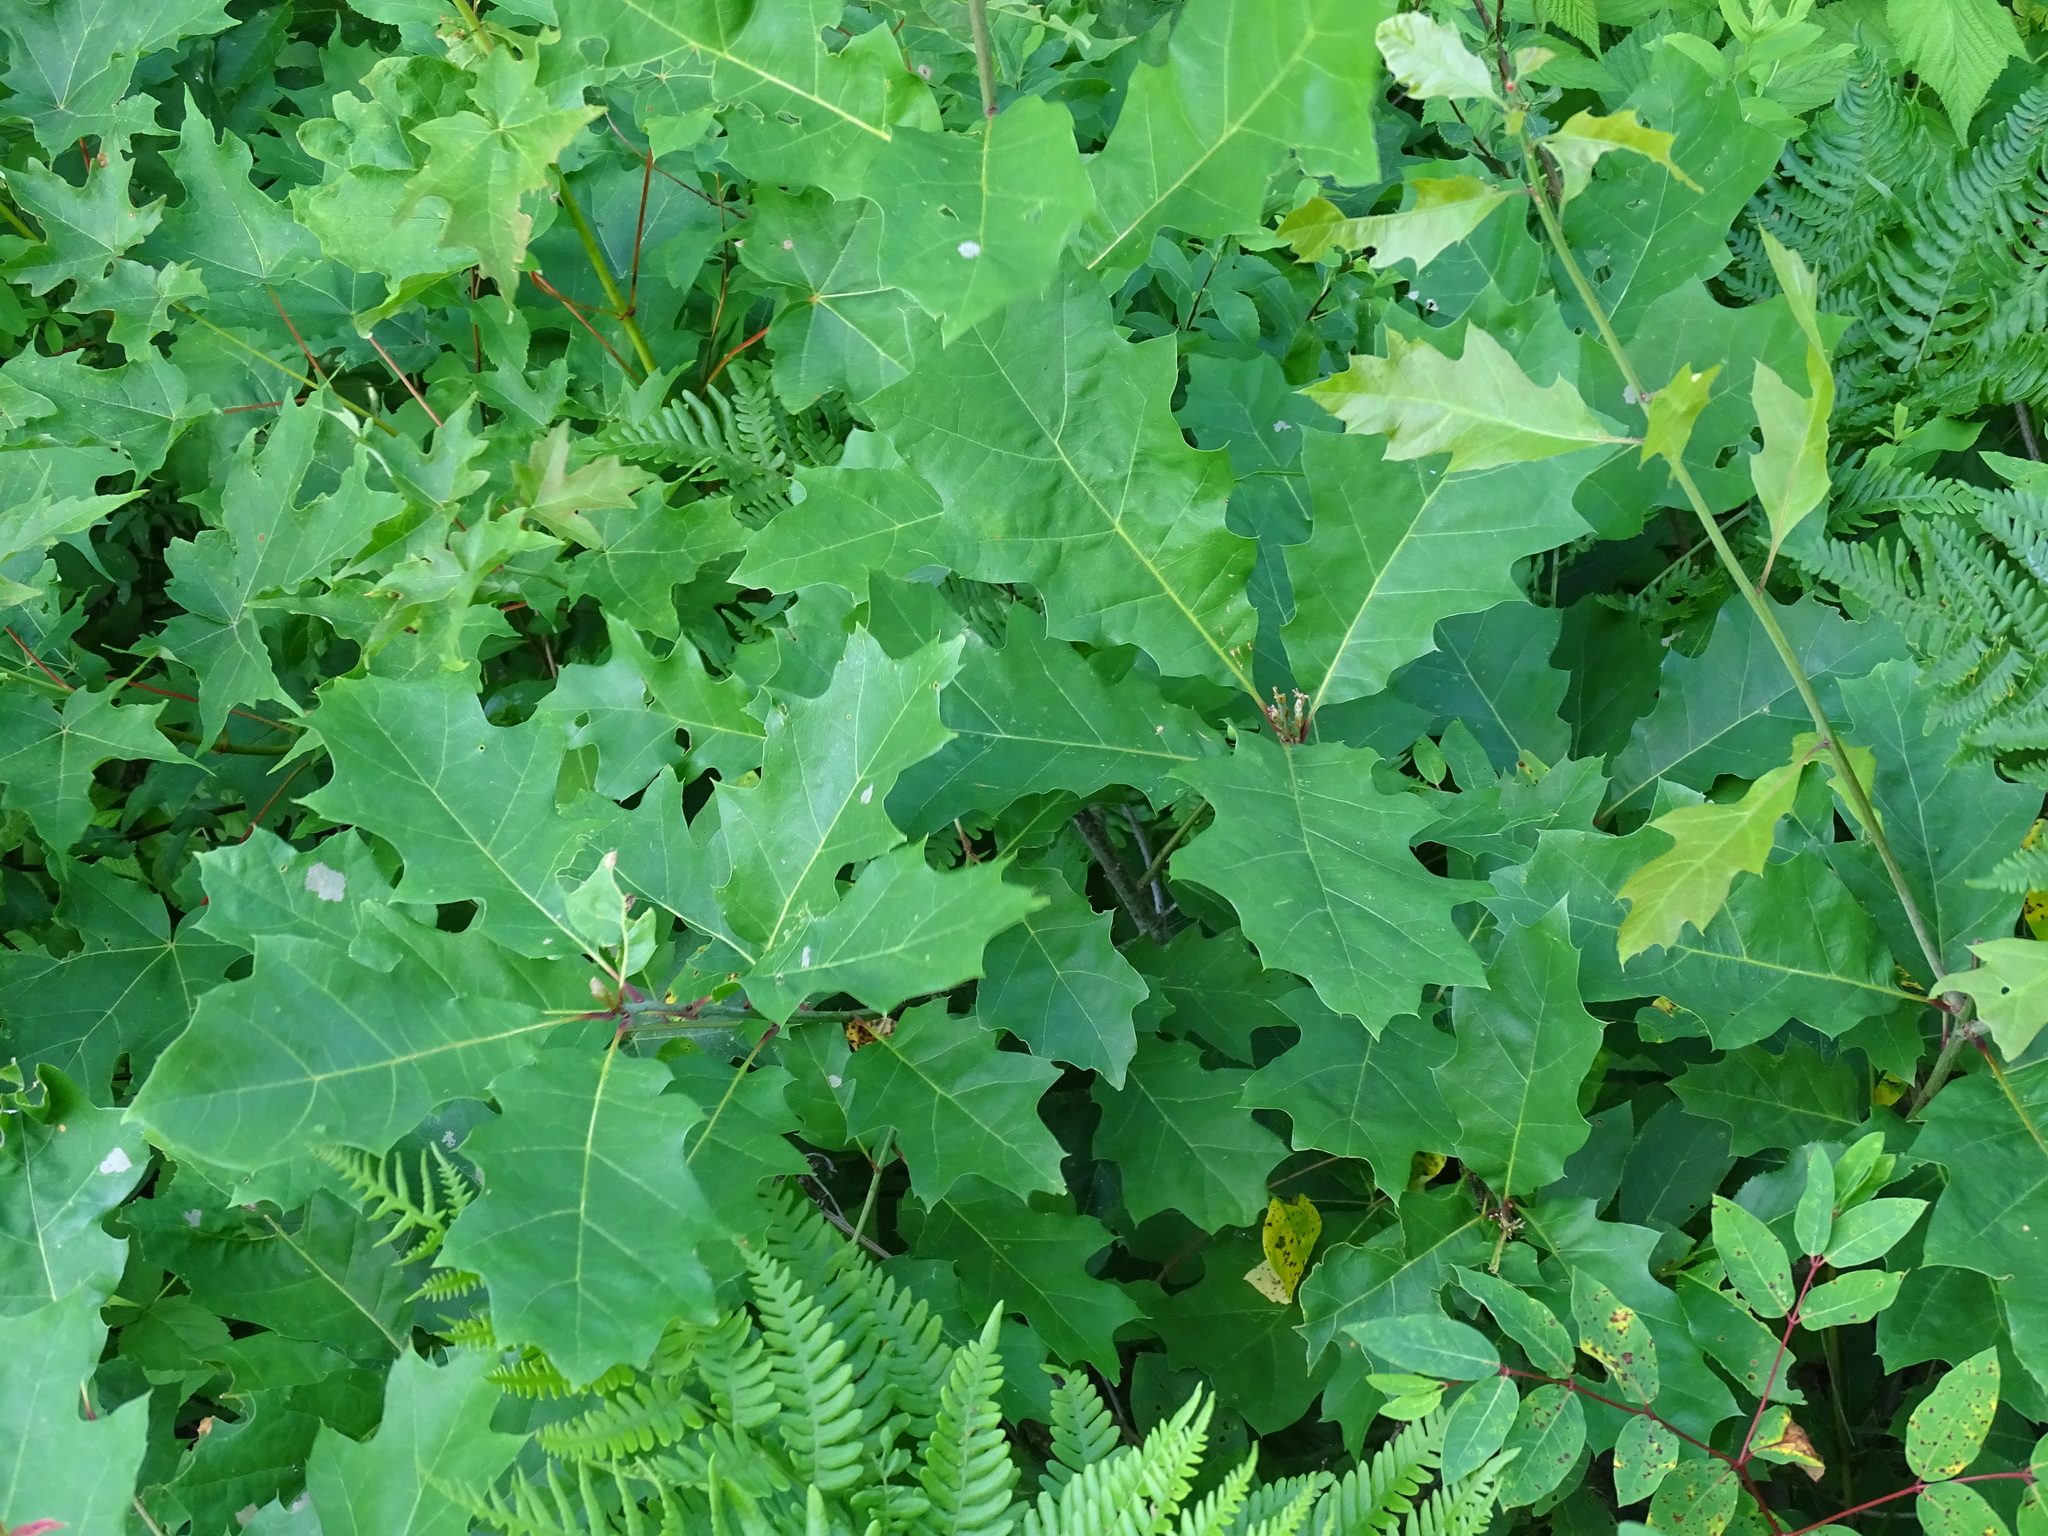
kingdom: Plantae
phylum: Tracheophyta
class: Magnoliopsida
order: Fagales
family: Fagaceae
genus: Quercus
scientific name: Quercus rubra
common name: Red oak
